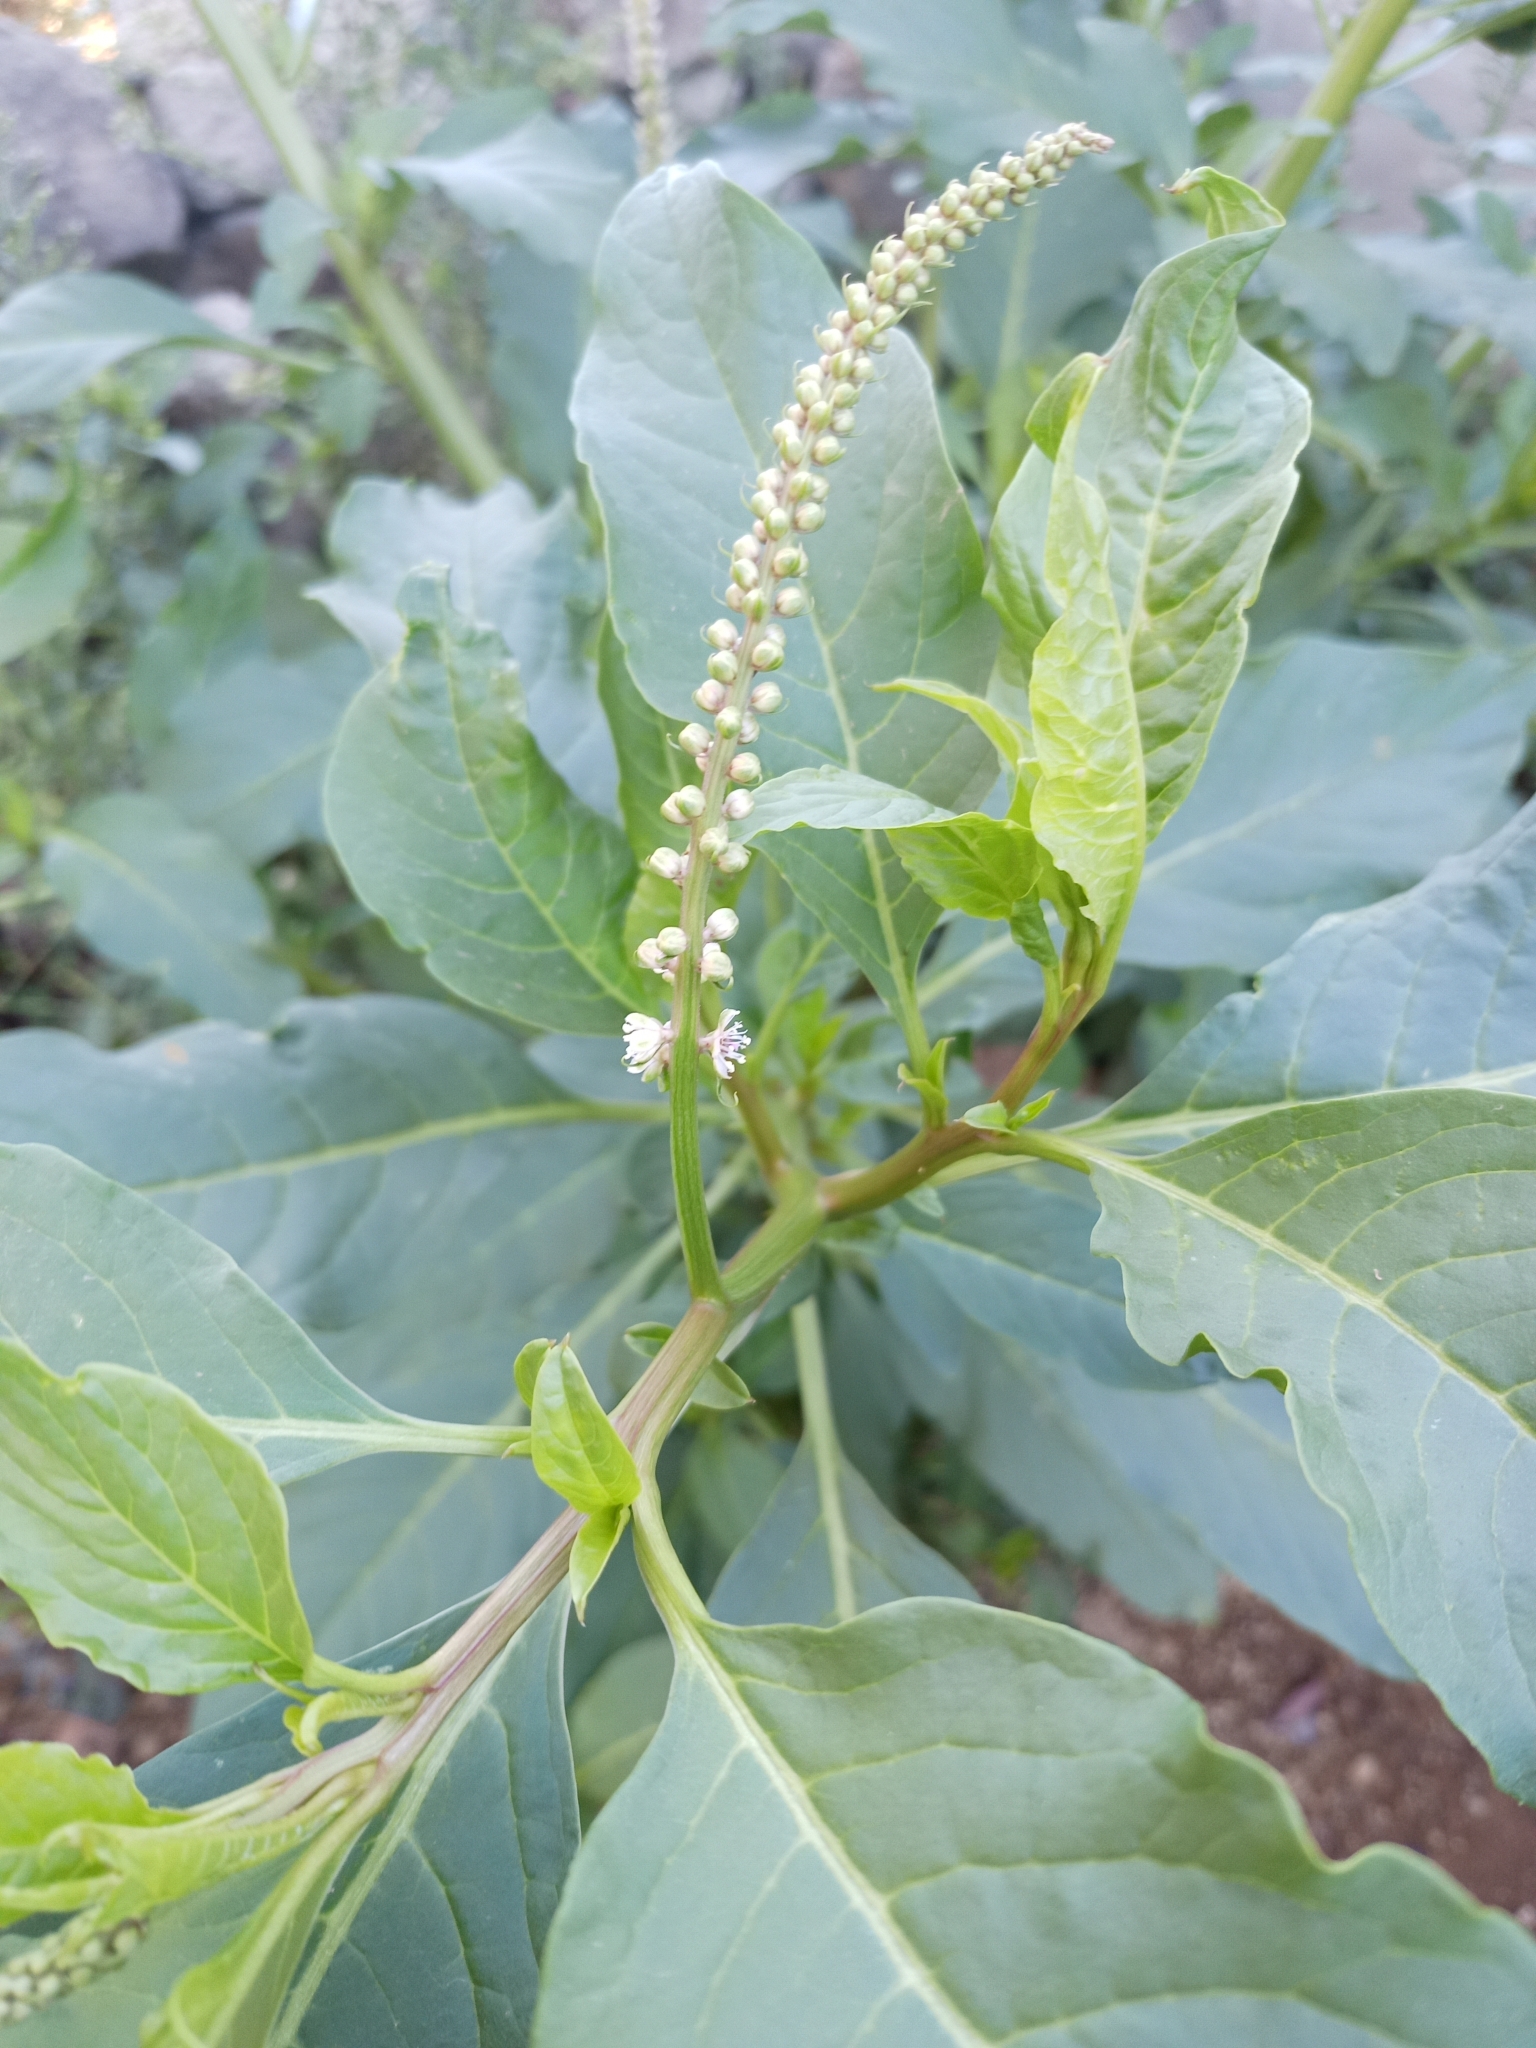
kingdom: Plantae
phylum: Tracheophyta
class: Magnoliopsida
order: Caryophyllales
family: Phytolaccaceae
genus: Phytolacca
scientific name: Phytolacca icosandra
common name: Button pokeweed
